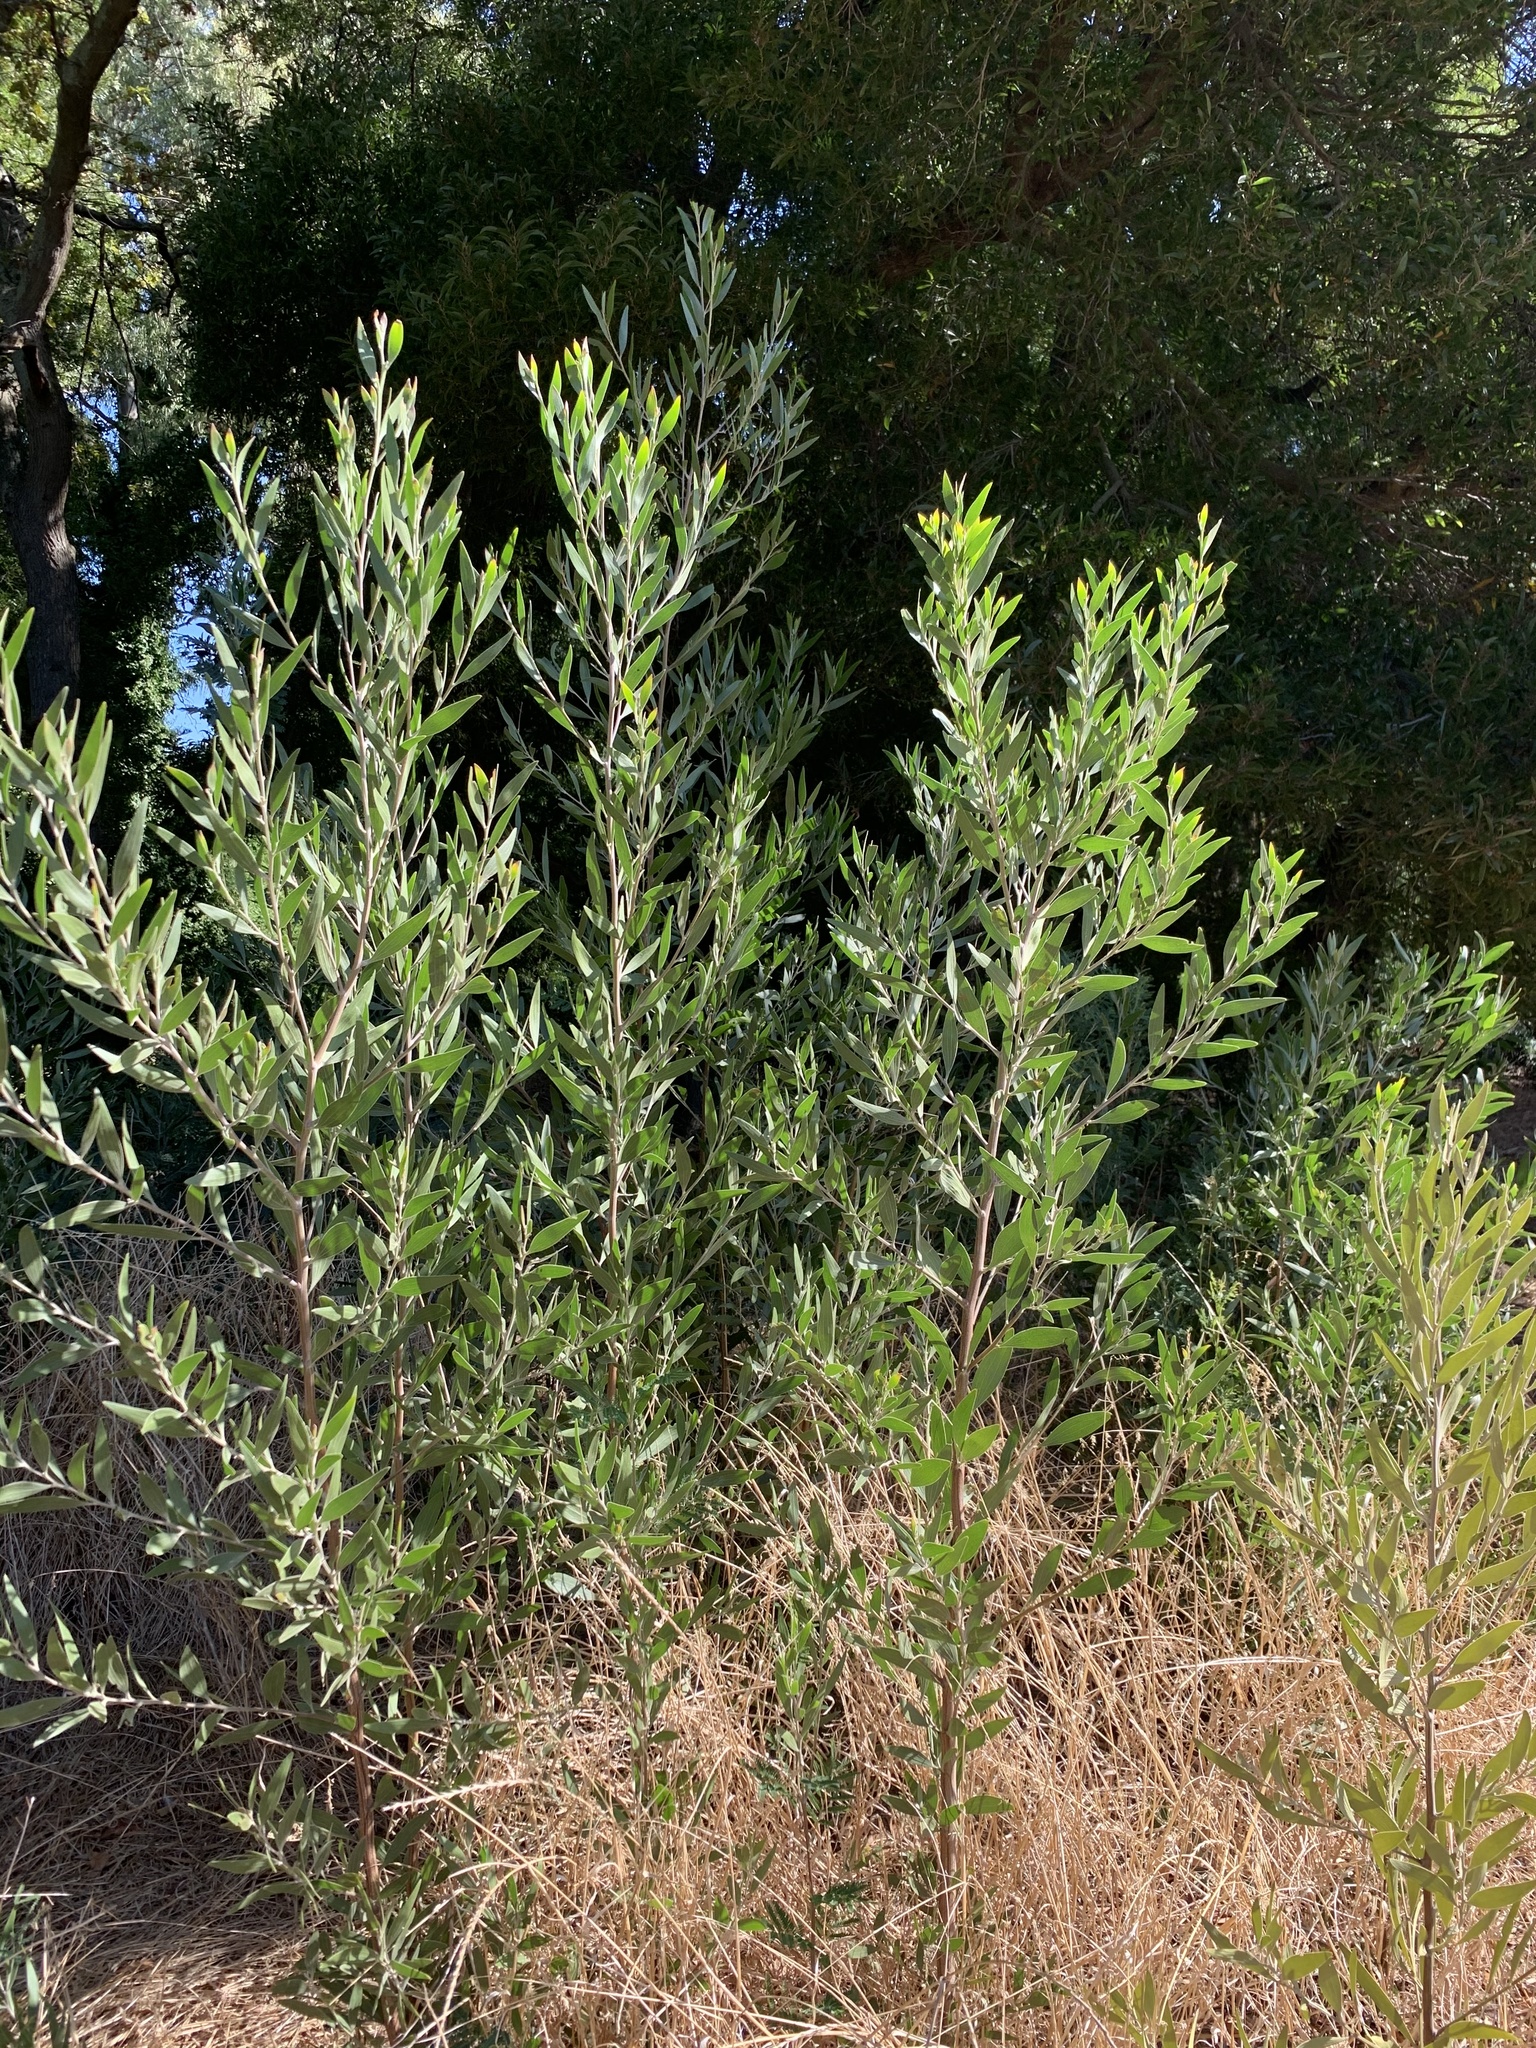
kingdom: Plantae
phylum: Tracheophyta
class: Magnoliopsida
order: Fabales
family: Fabaceae
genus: Acacia
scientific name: Acacia melanoxylon
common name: Blackwood
